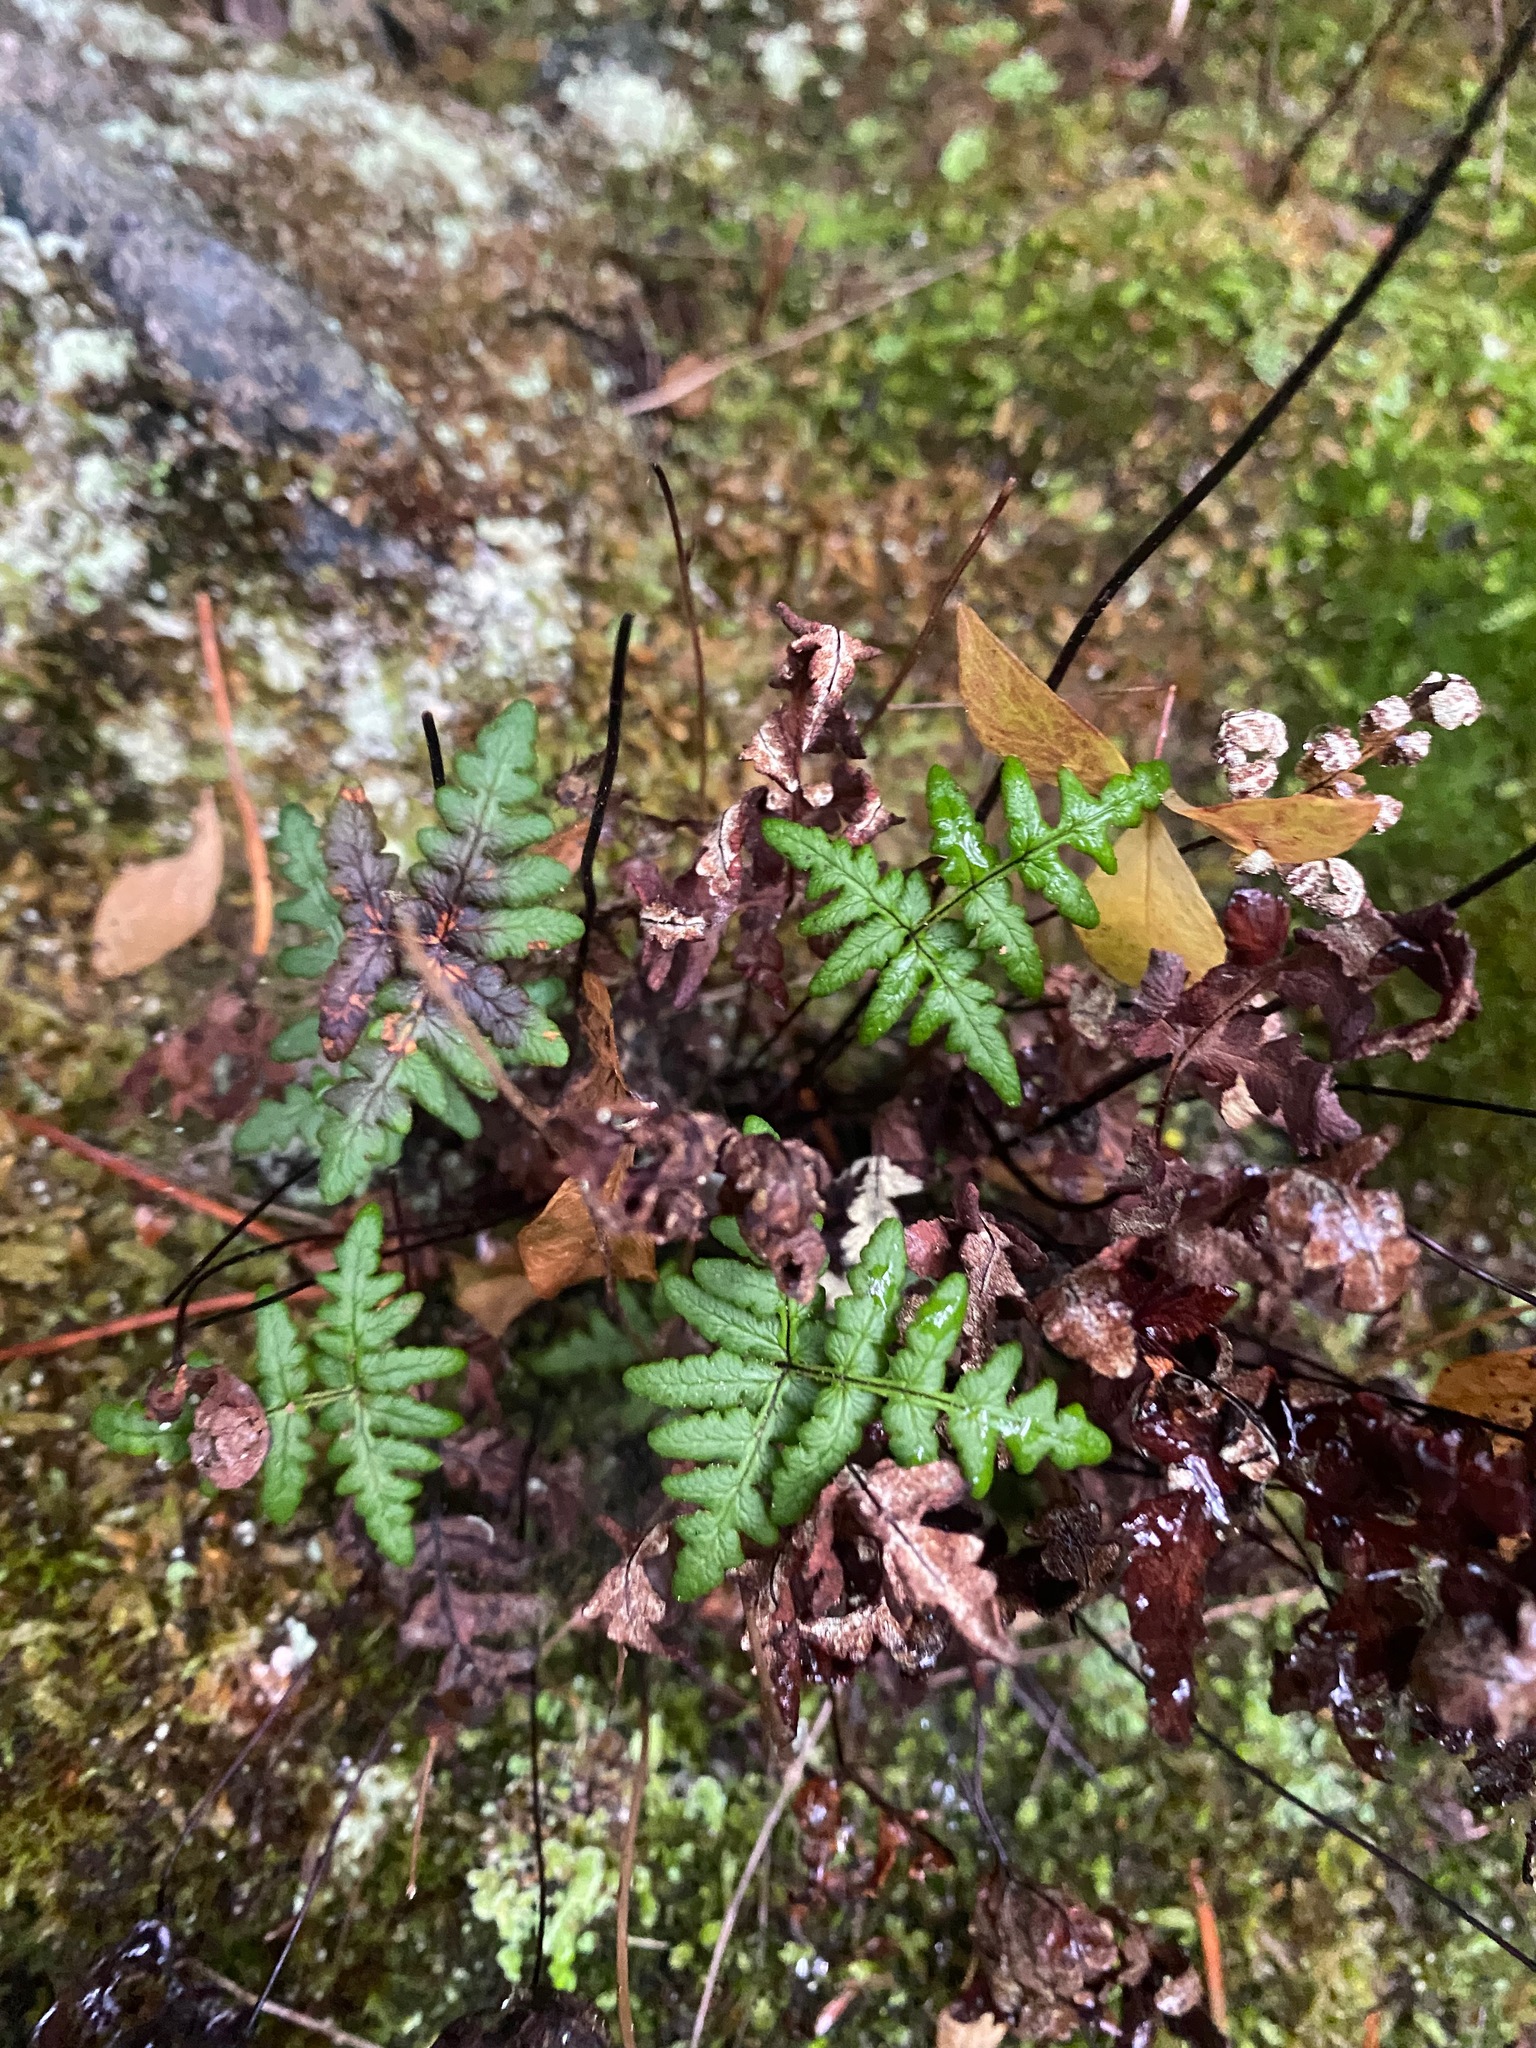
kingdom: Plantae
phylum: Tracheophyta
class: Polypodiopsida
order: Polypodiales
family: Pteridaceae
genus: Pentagramma
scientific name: Pentagramma triangularis
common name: Gold fern
